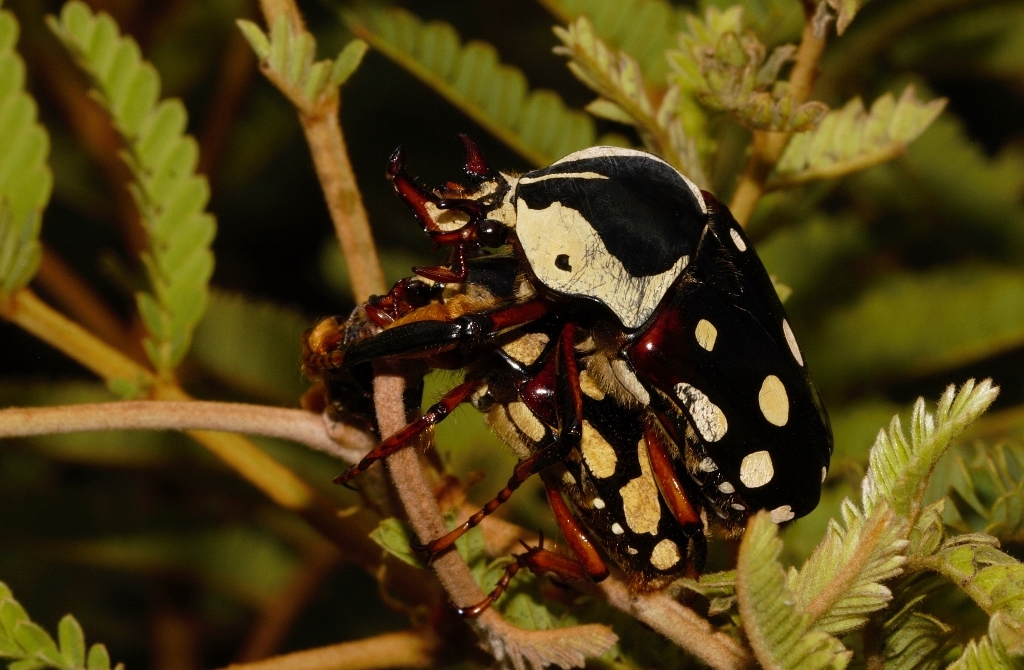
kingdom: Animalia
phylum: Arthropoda
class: Insecta
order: Coleoptera
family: Scarabaeidae
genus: Cheirolasia
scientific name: Cheirolasia burkei
